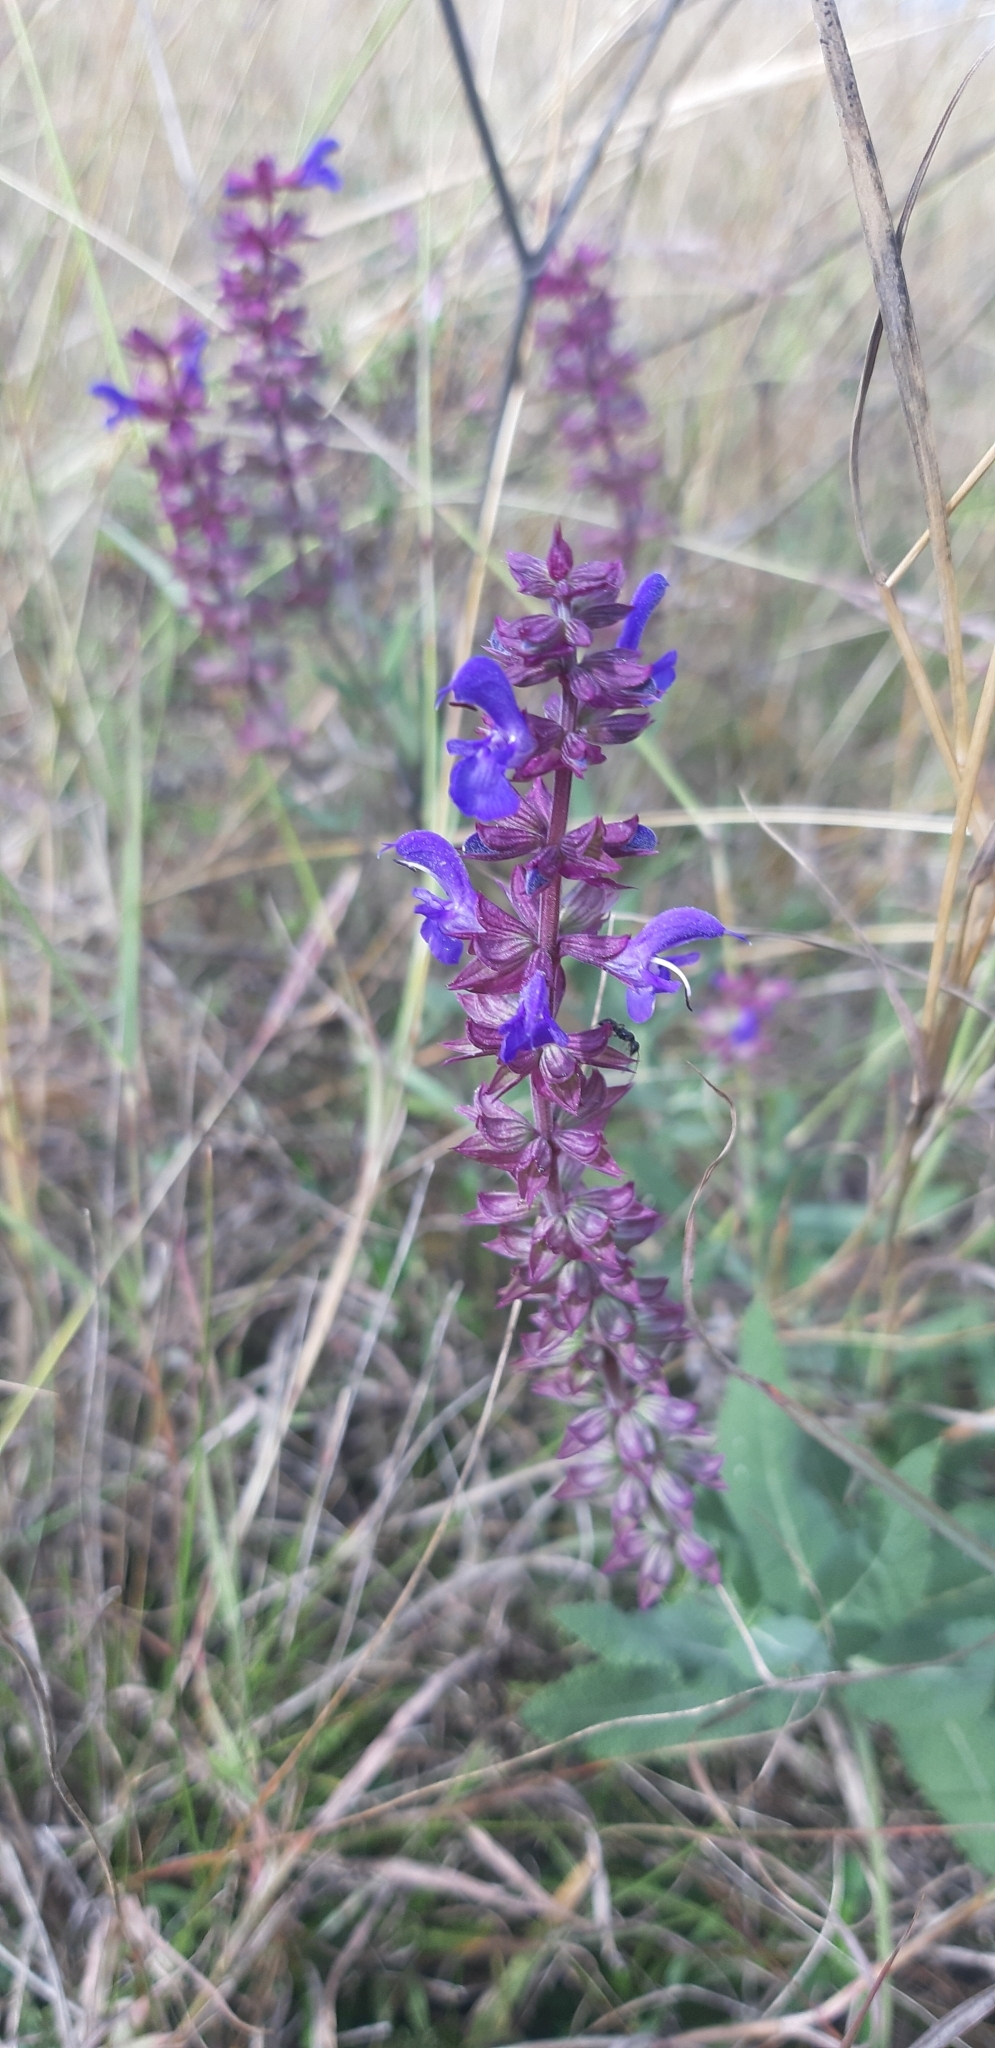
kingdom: Plantae
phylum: Tracheophyta
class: Magnoliopsida
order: Lamiales
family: Lamiaceae
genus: Salvia
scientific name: Salvia nemorosa
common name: Balkan clary
